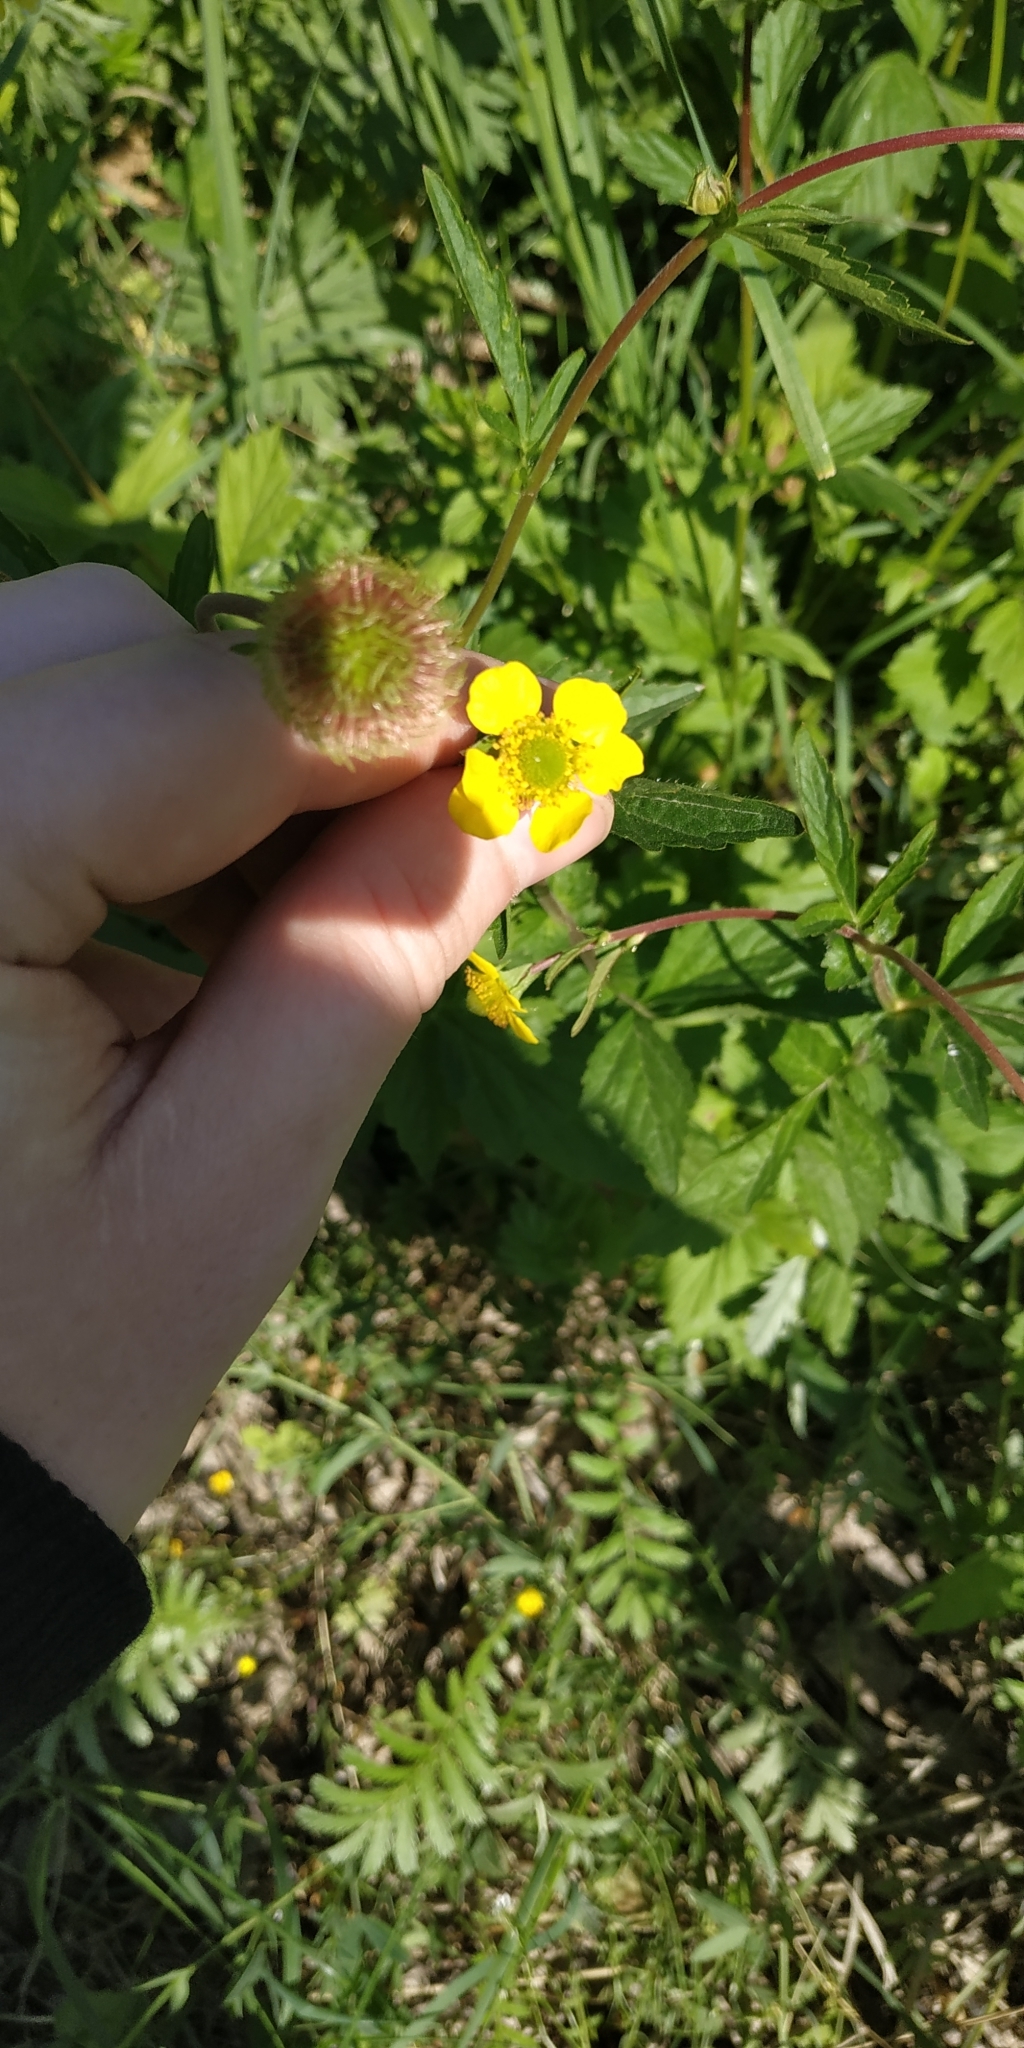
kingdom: Plantae
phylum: Tracheophyta
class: Magnoliopsida
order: Rosales
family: Rosaceae
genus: Geum
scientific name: Geum aleppicum
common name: Yellow avens
